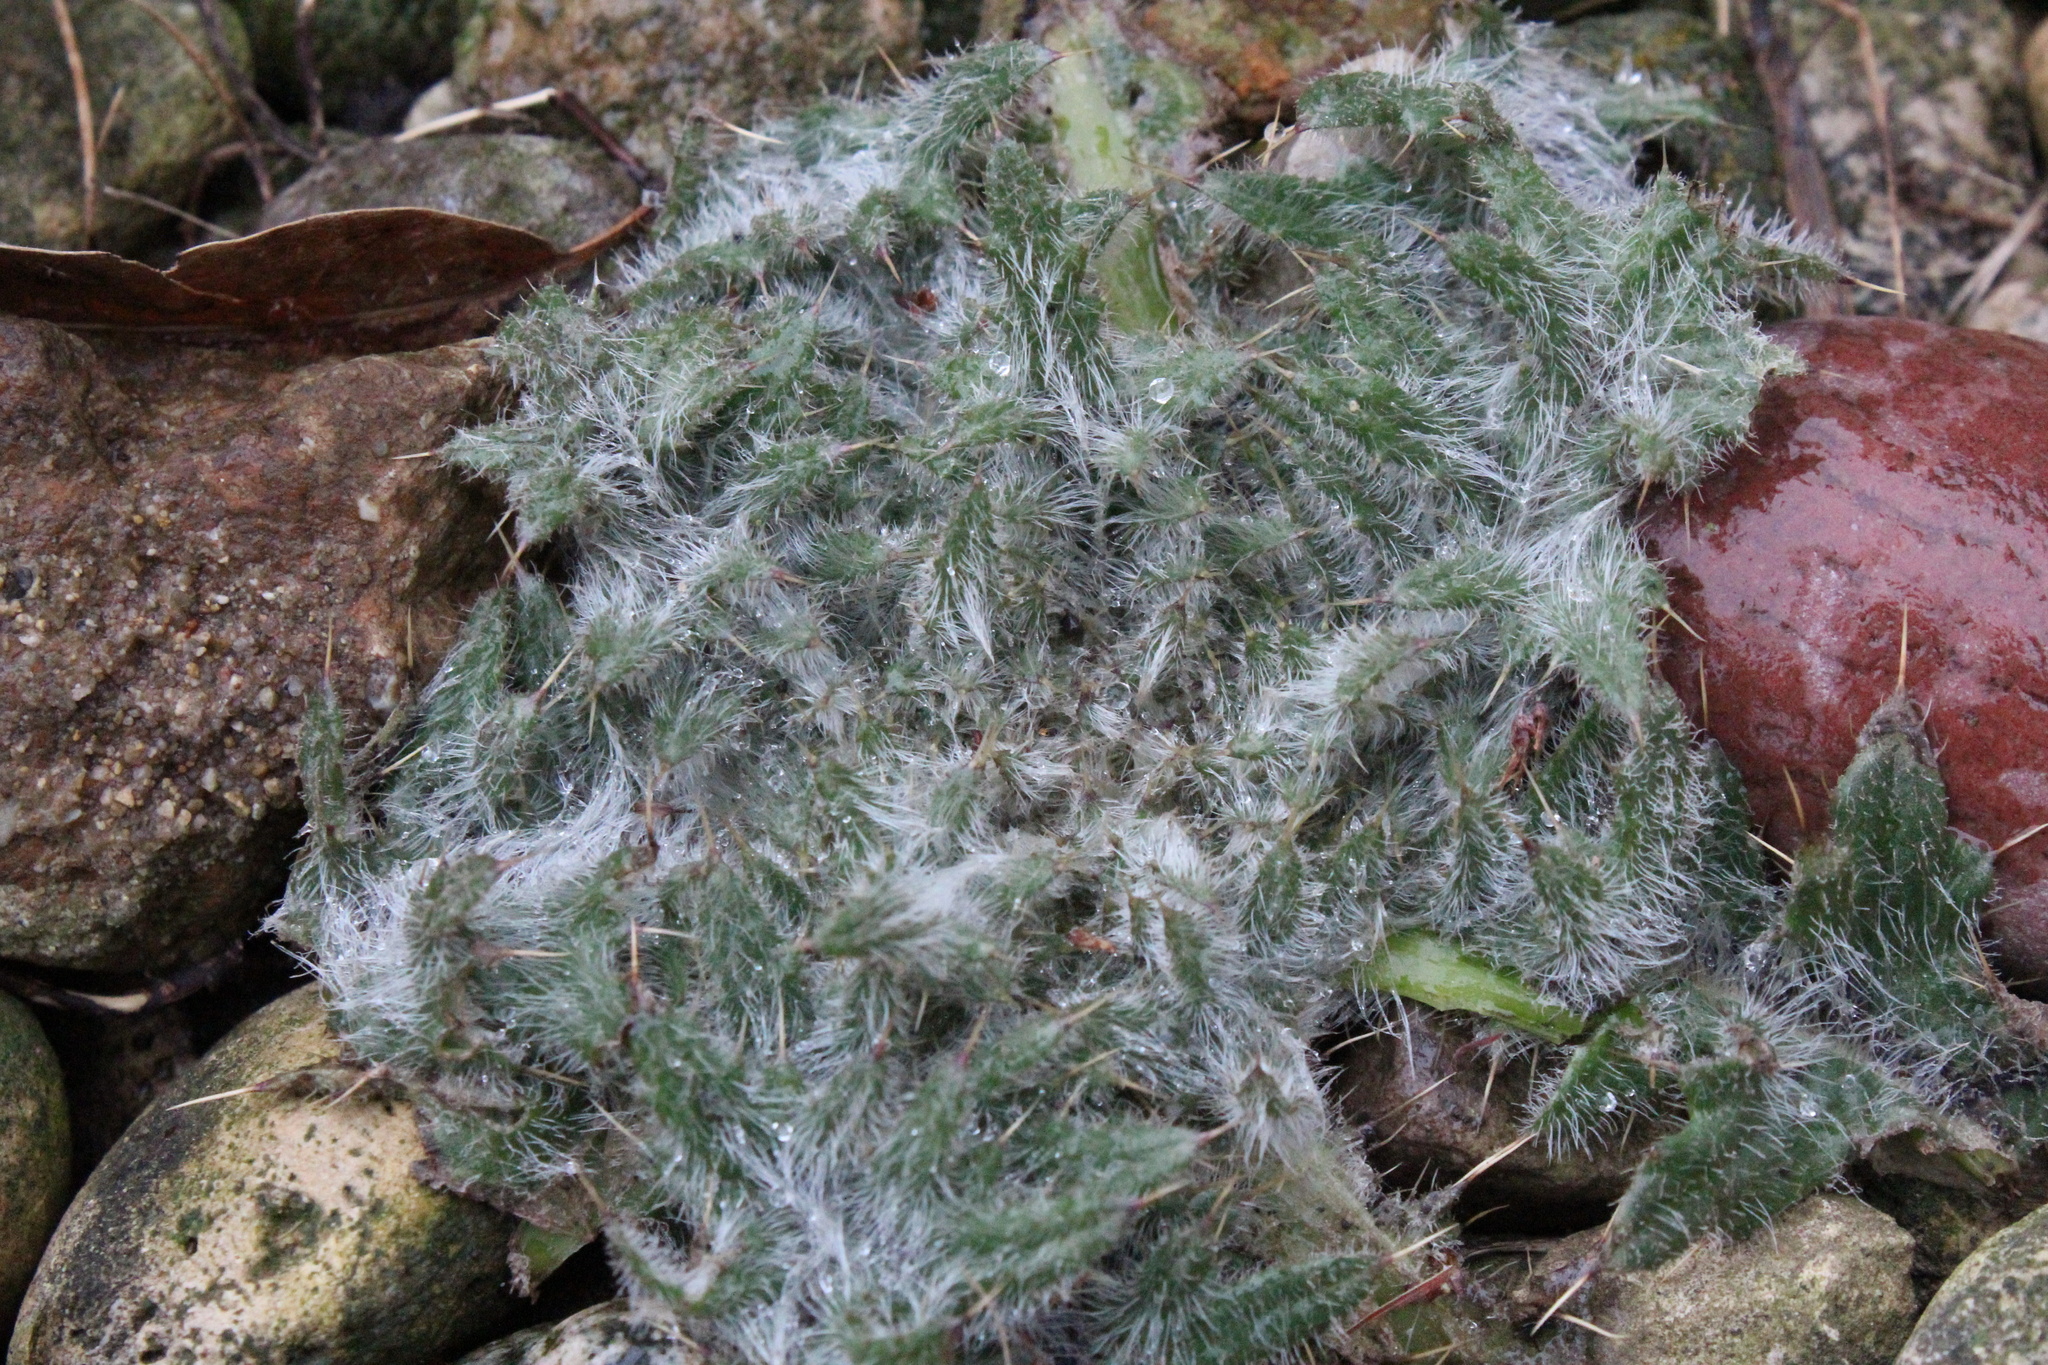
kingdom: Plantae
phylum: Tracheophyta
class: Magnoliopsida
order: Asterales
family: Asteraceae
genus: Cirsium
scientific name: Cirsium vulgare
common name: Bull thistle
